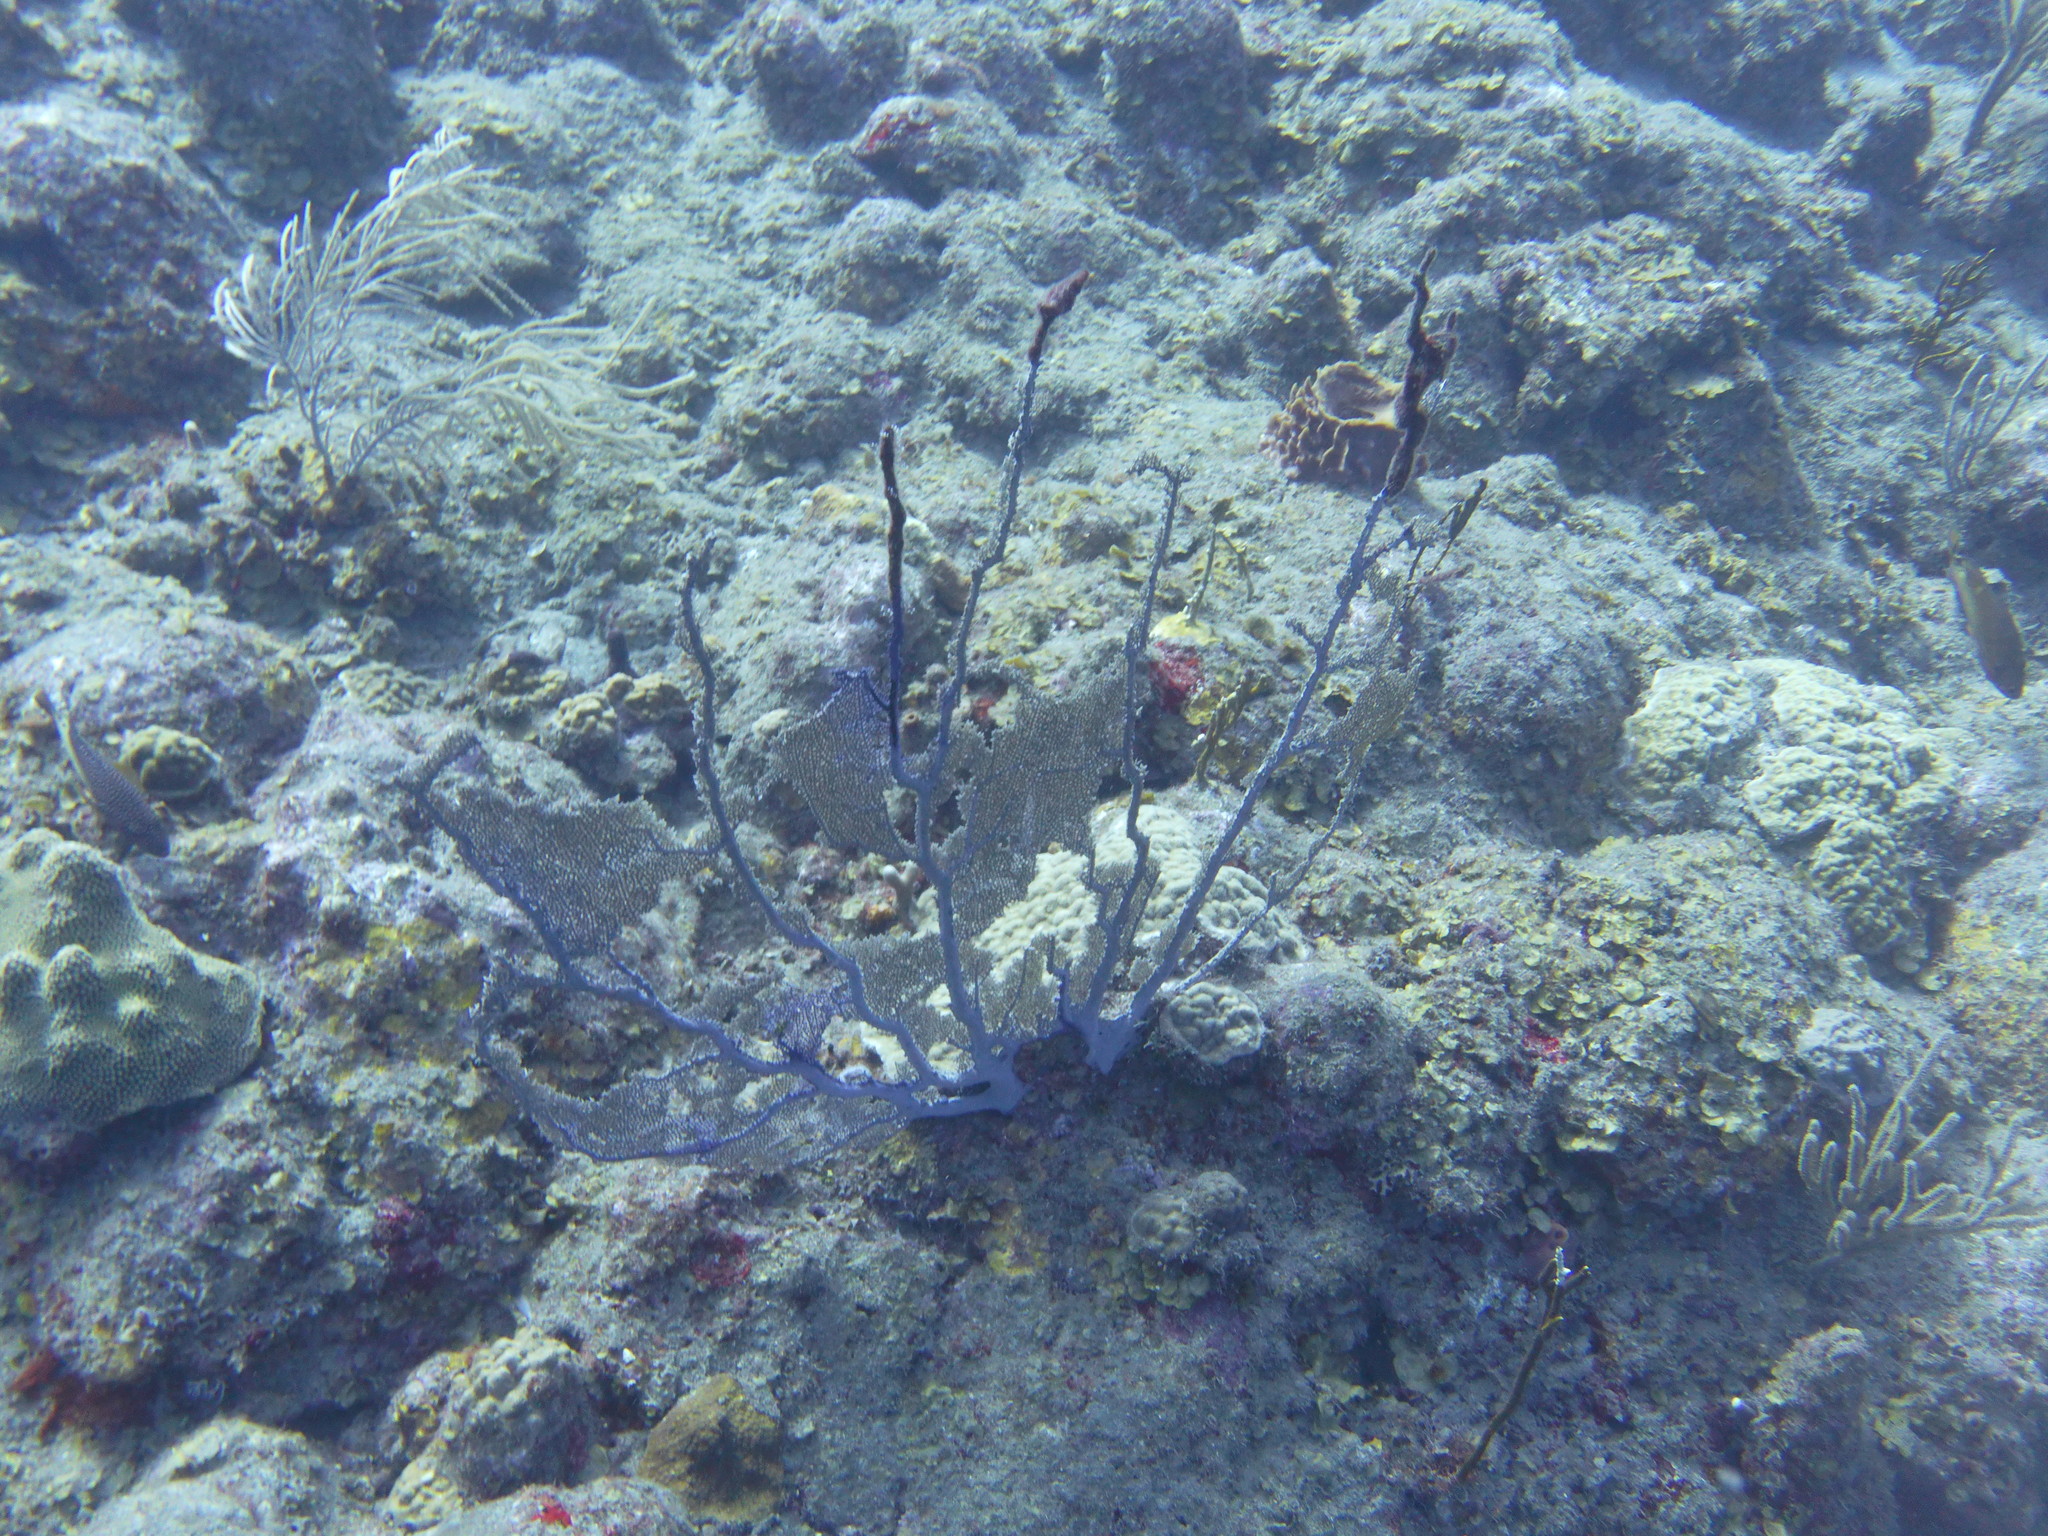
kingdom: Animalia
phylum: Cnidaria
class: Anthozoa
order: Malacalcyonacea
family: Gorgoniidae
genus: Gorgonia
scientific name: Gorgonia ventalina
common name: Common sea fan
